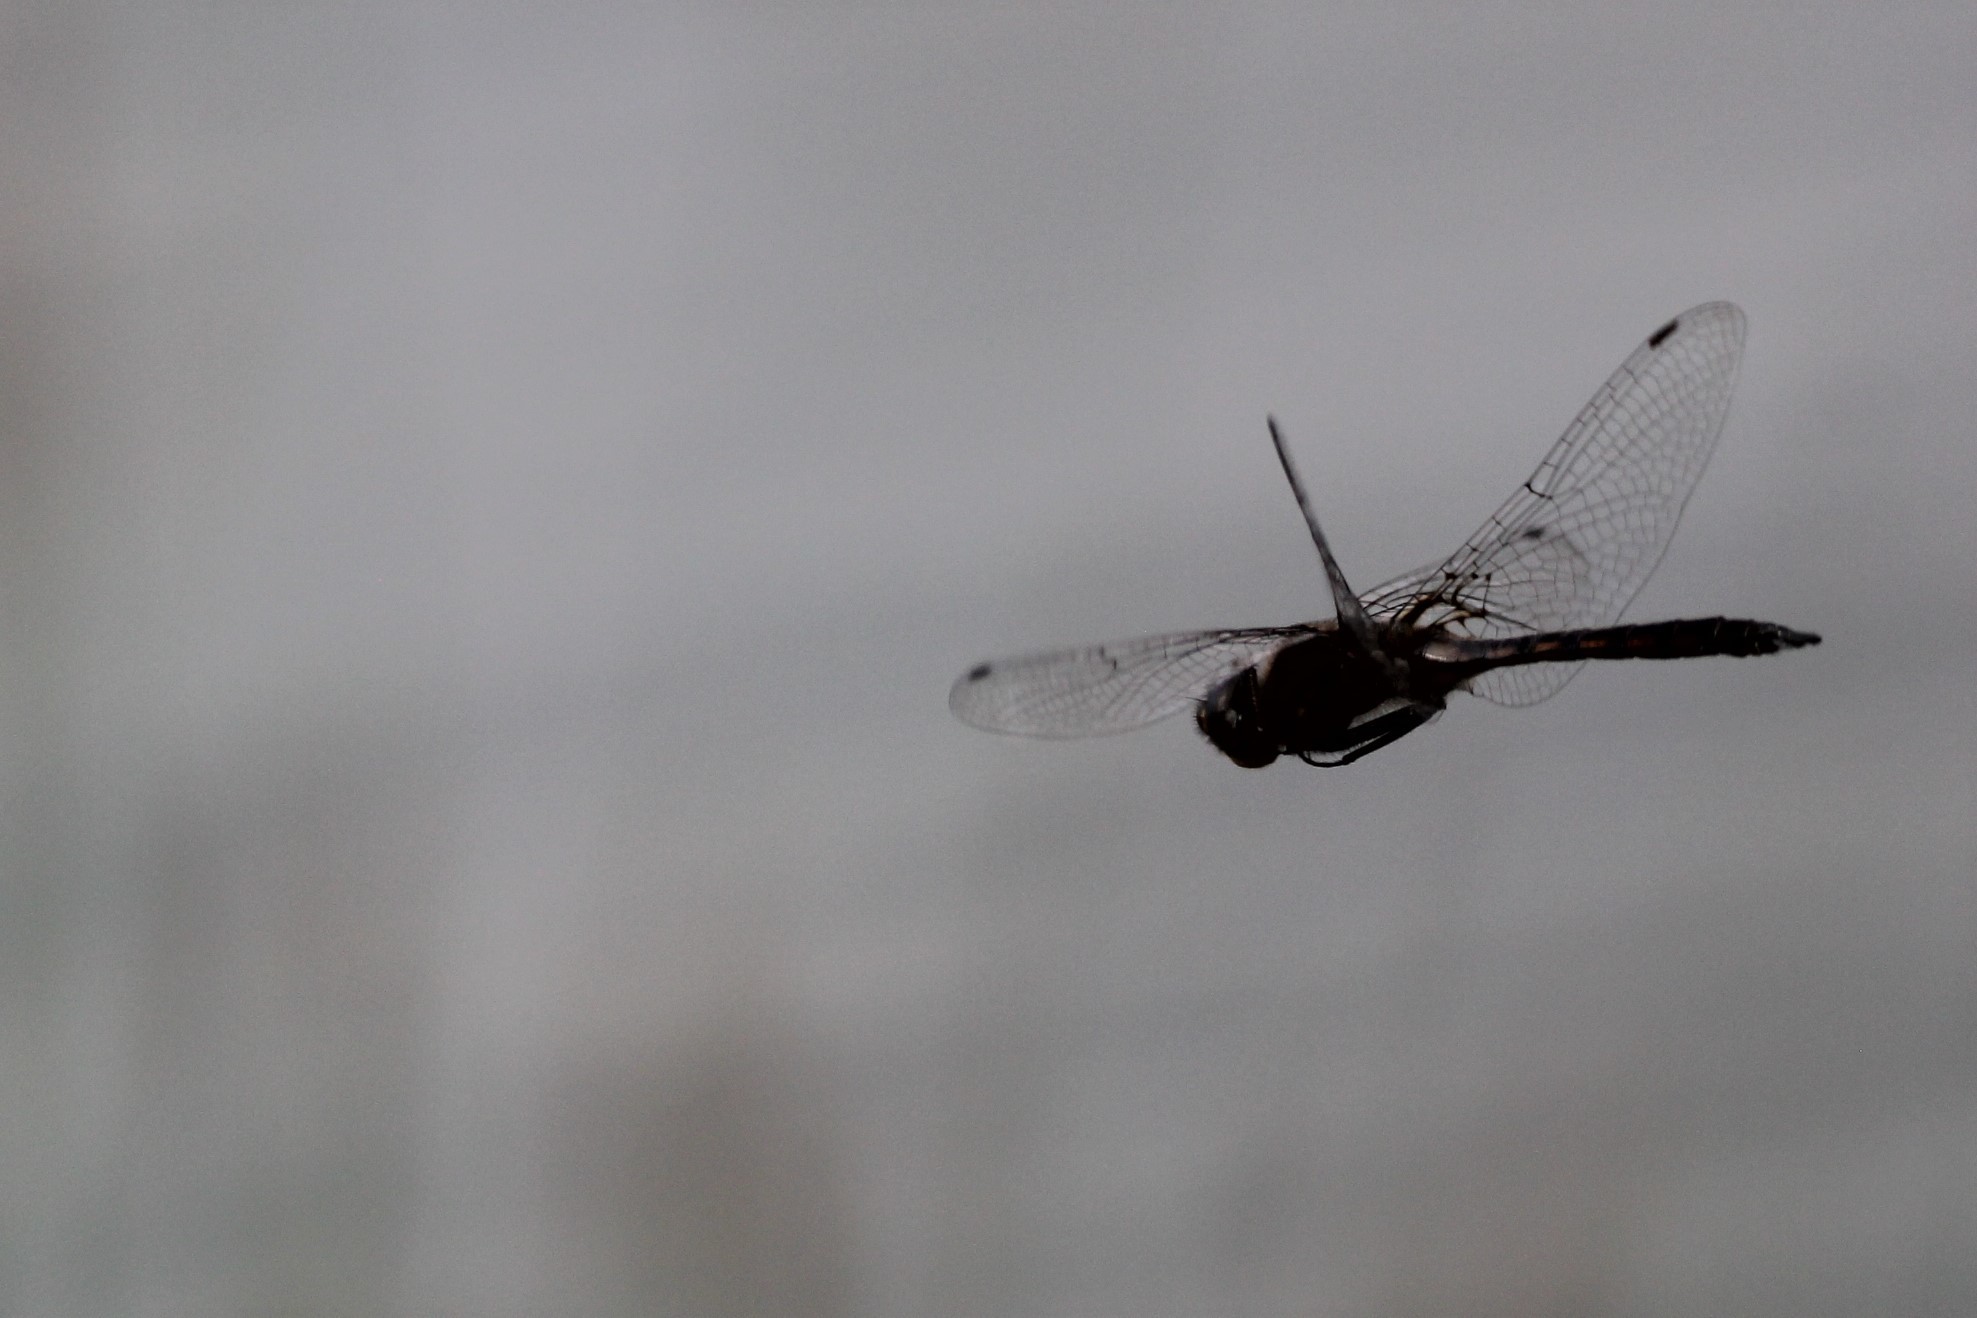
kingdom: Animalia
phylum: Arthropoda
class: Insecta
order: Odonata
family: Corduliidae
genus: Epitheca
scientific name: Epitheca cynosura
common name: Common baskettail
